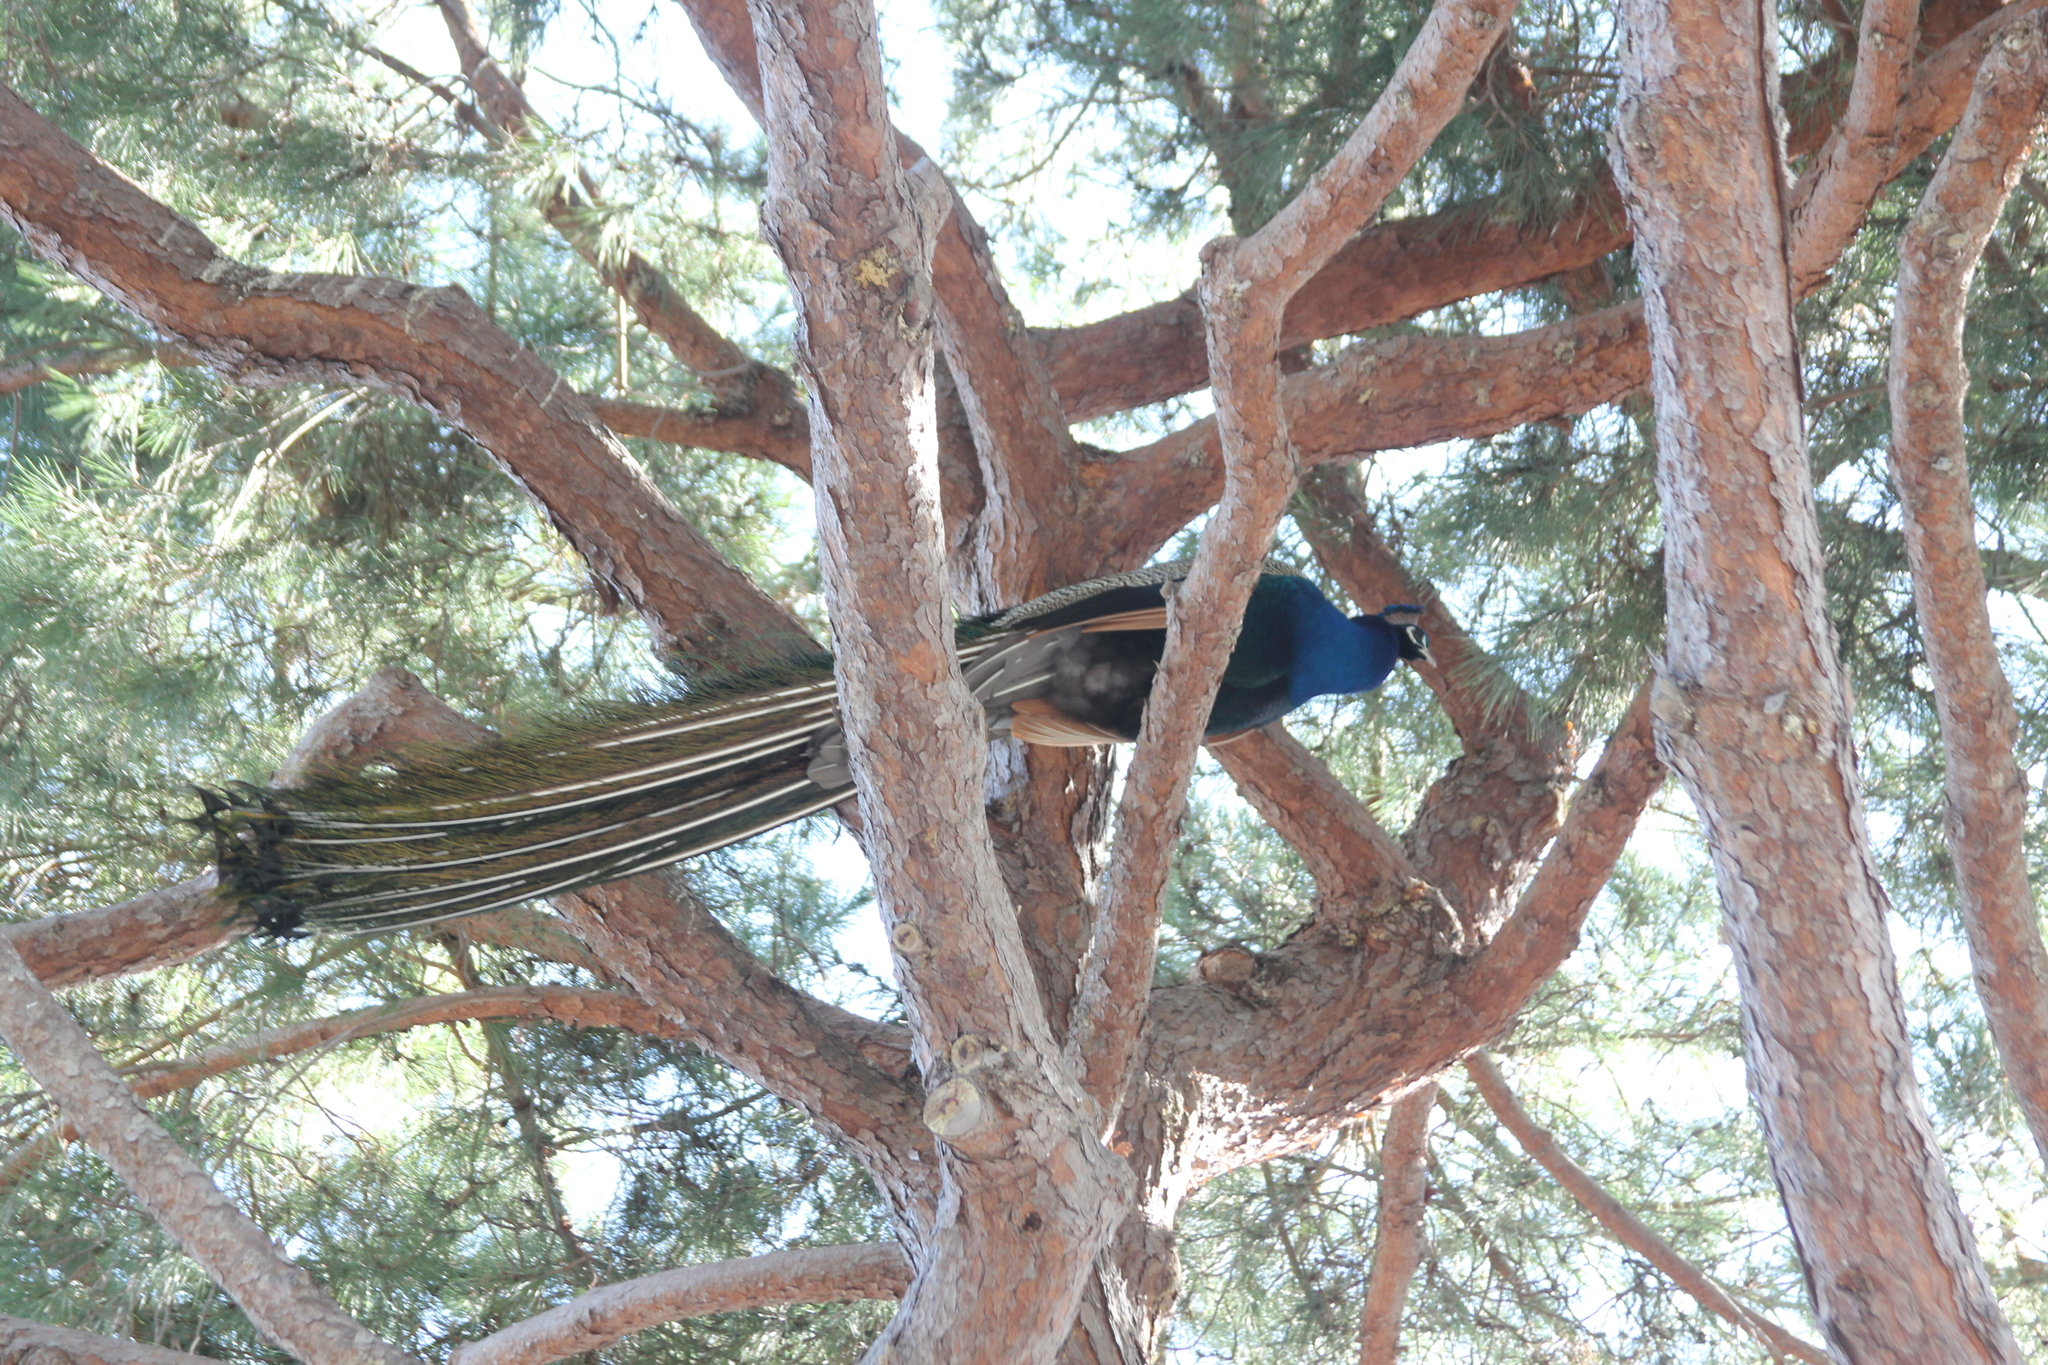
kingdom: Animalia
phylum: Chordata
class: Aves
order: Galliformes
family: Phasianidae
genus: Pavo
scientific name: Pavo cristatus
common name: Indian peafowl
